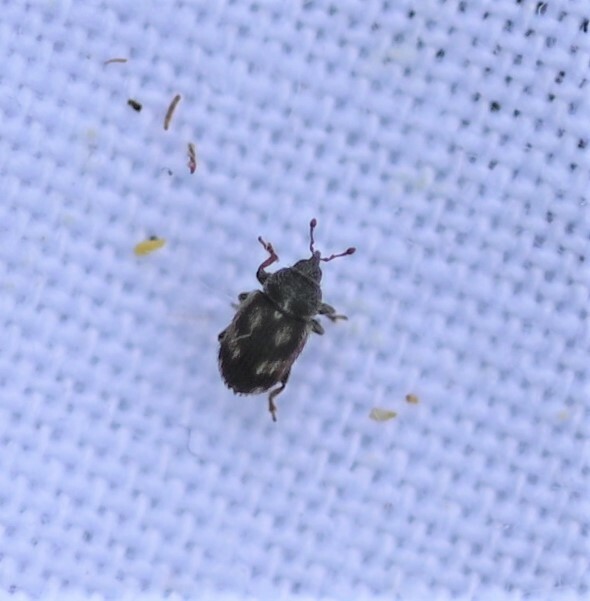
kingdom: Animalia
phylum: Arthropoda
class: Insecta
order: Coleoptera
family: Curculionidae
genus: Mecinus
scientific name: Mecinus labilis
